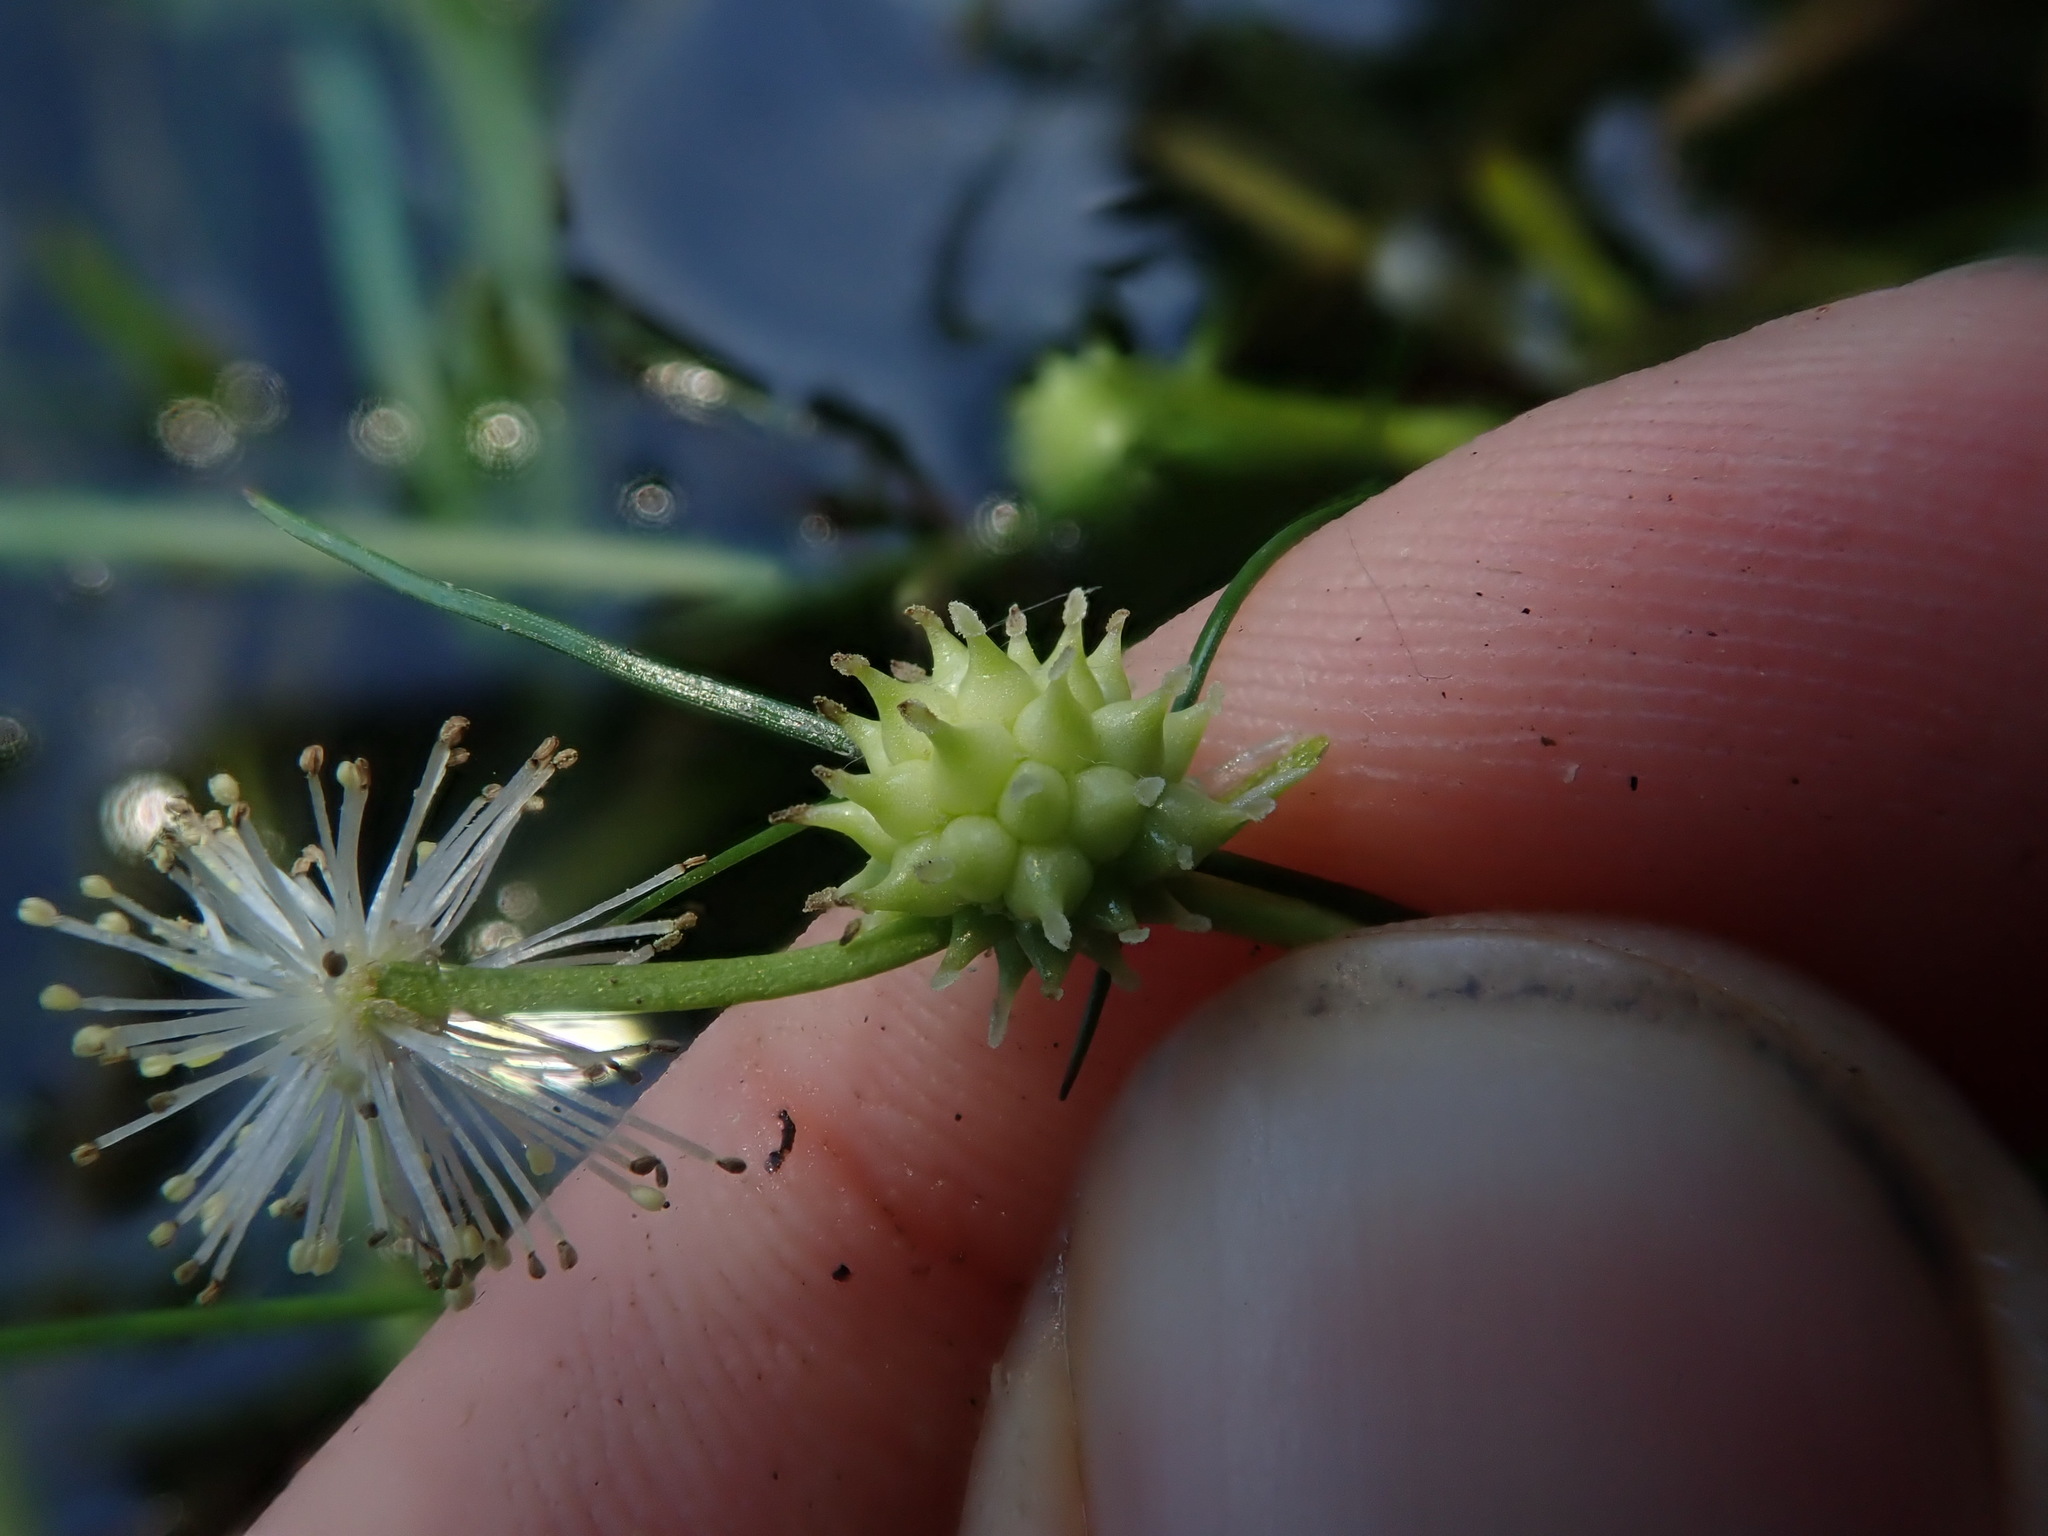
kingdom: Plantae
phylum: Tracheophyta
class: Liliopsida
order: Poales
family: Typhaceae
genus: Sparganium
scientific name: Sparganium natans
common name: Least bur-reed
